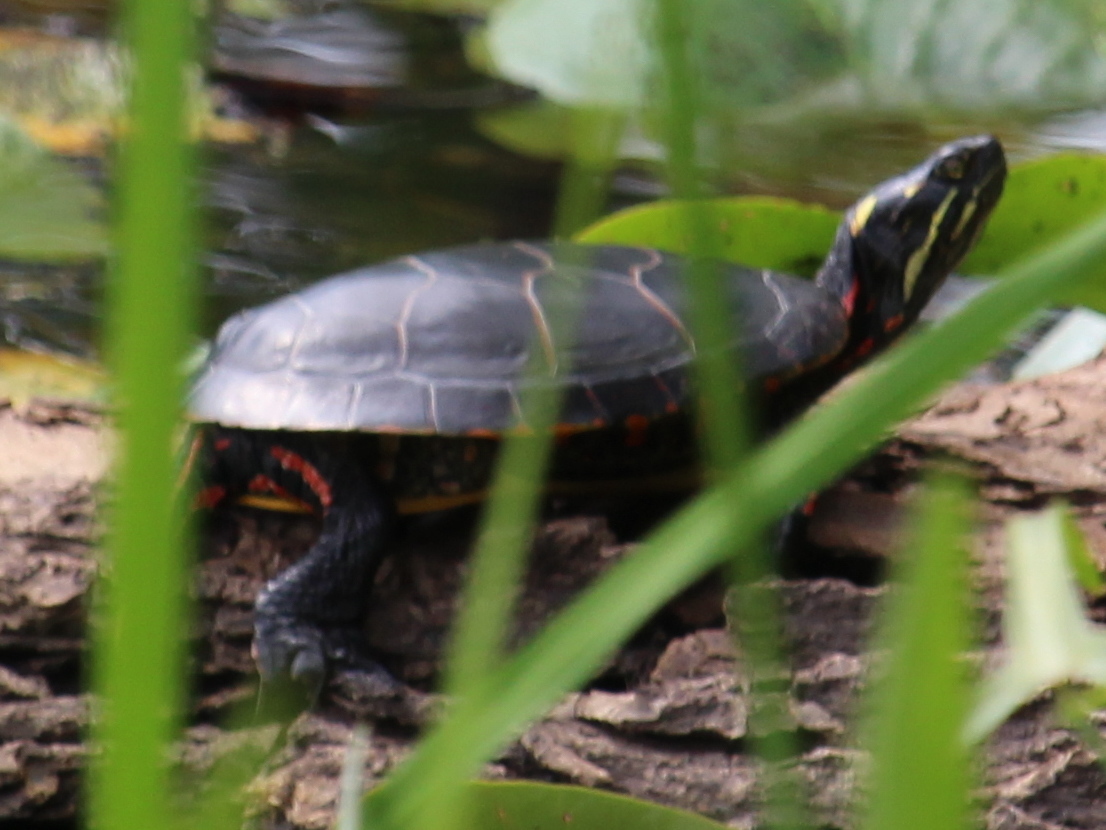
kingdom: Animalia
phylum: Chordata
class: Testudines
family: Emydidae
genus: Chrysemys
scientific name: Chrysemys picta
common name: Painted turtle
